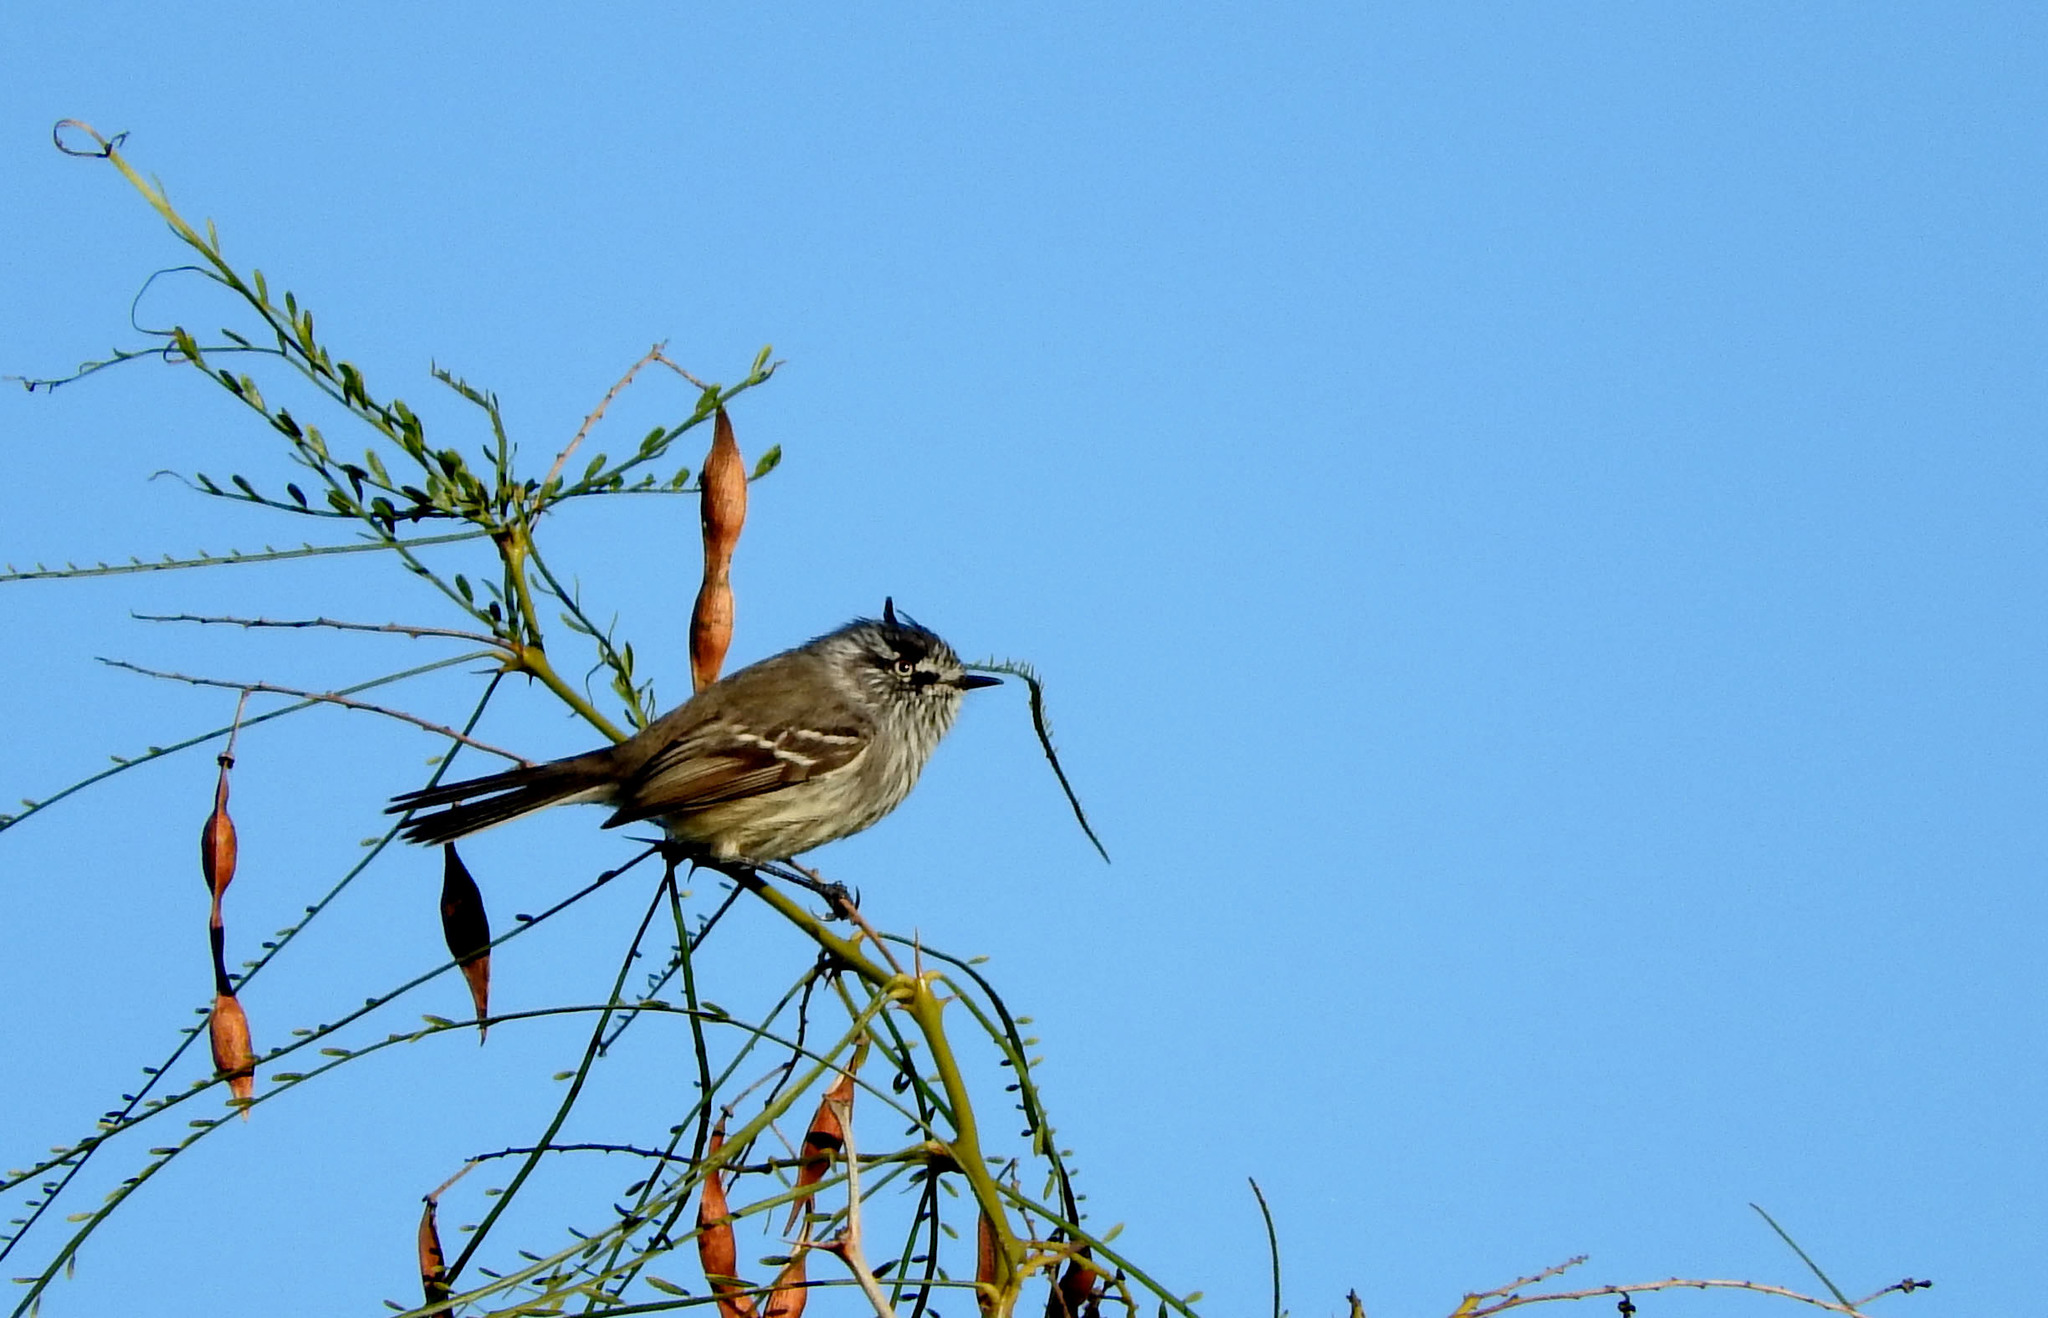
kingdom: Animalia
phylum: Chordata
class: Aves
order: Passeriformes
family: Tyrannidae
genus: Anairetes
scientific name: Anairetes parulus
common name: Tufted tit-tyrant
